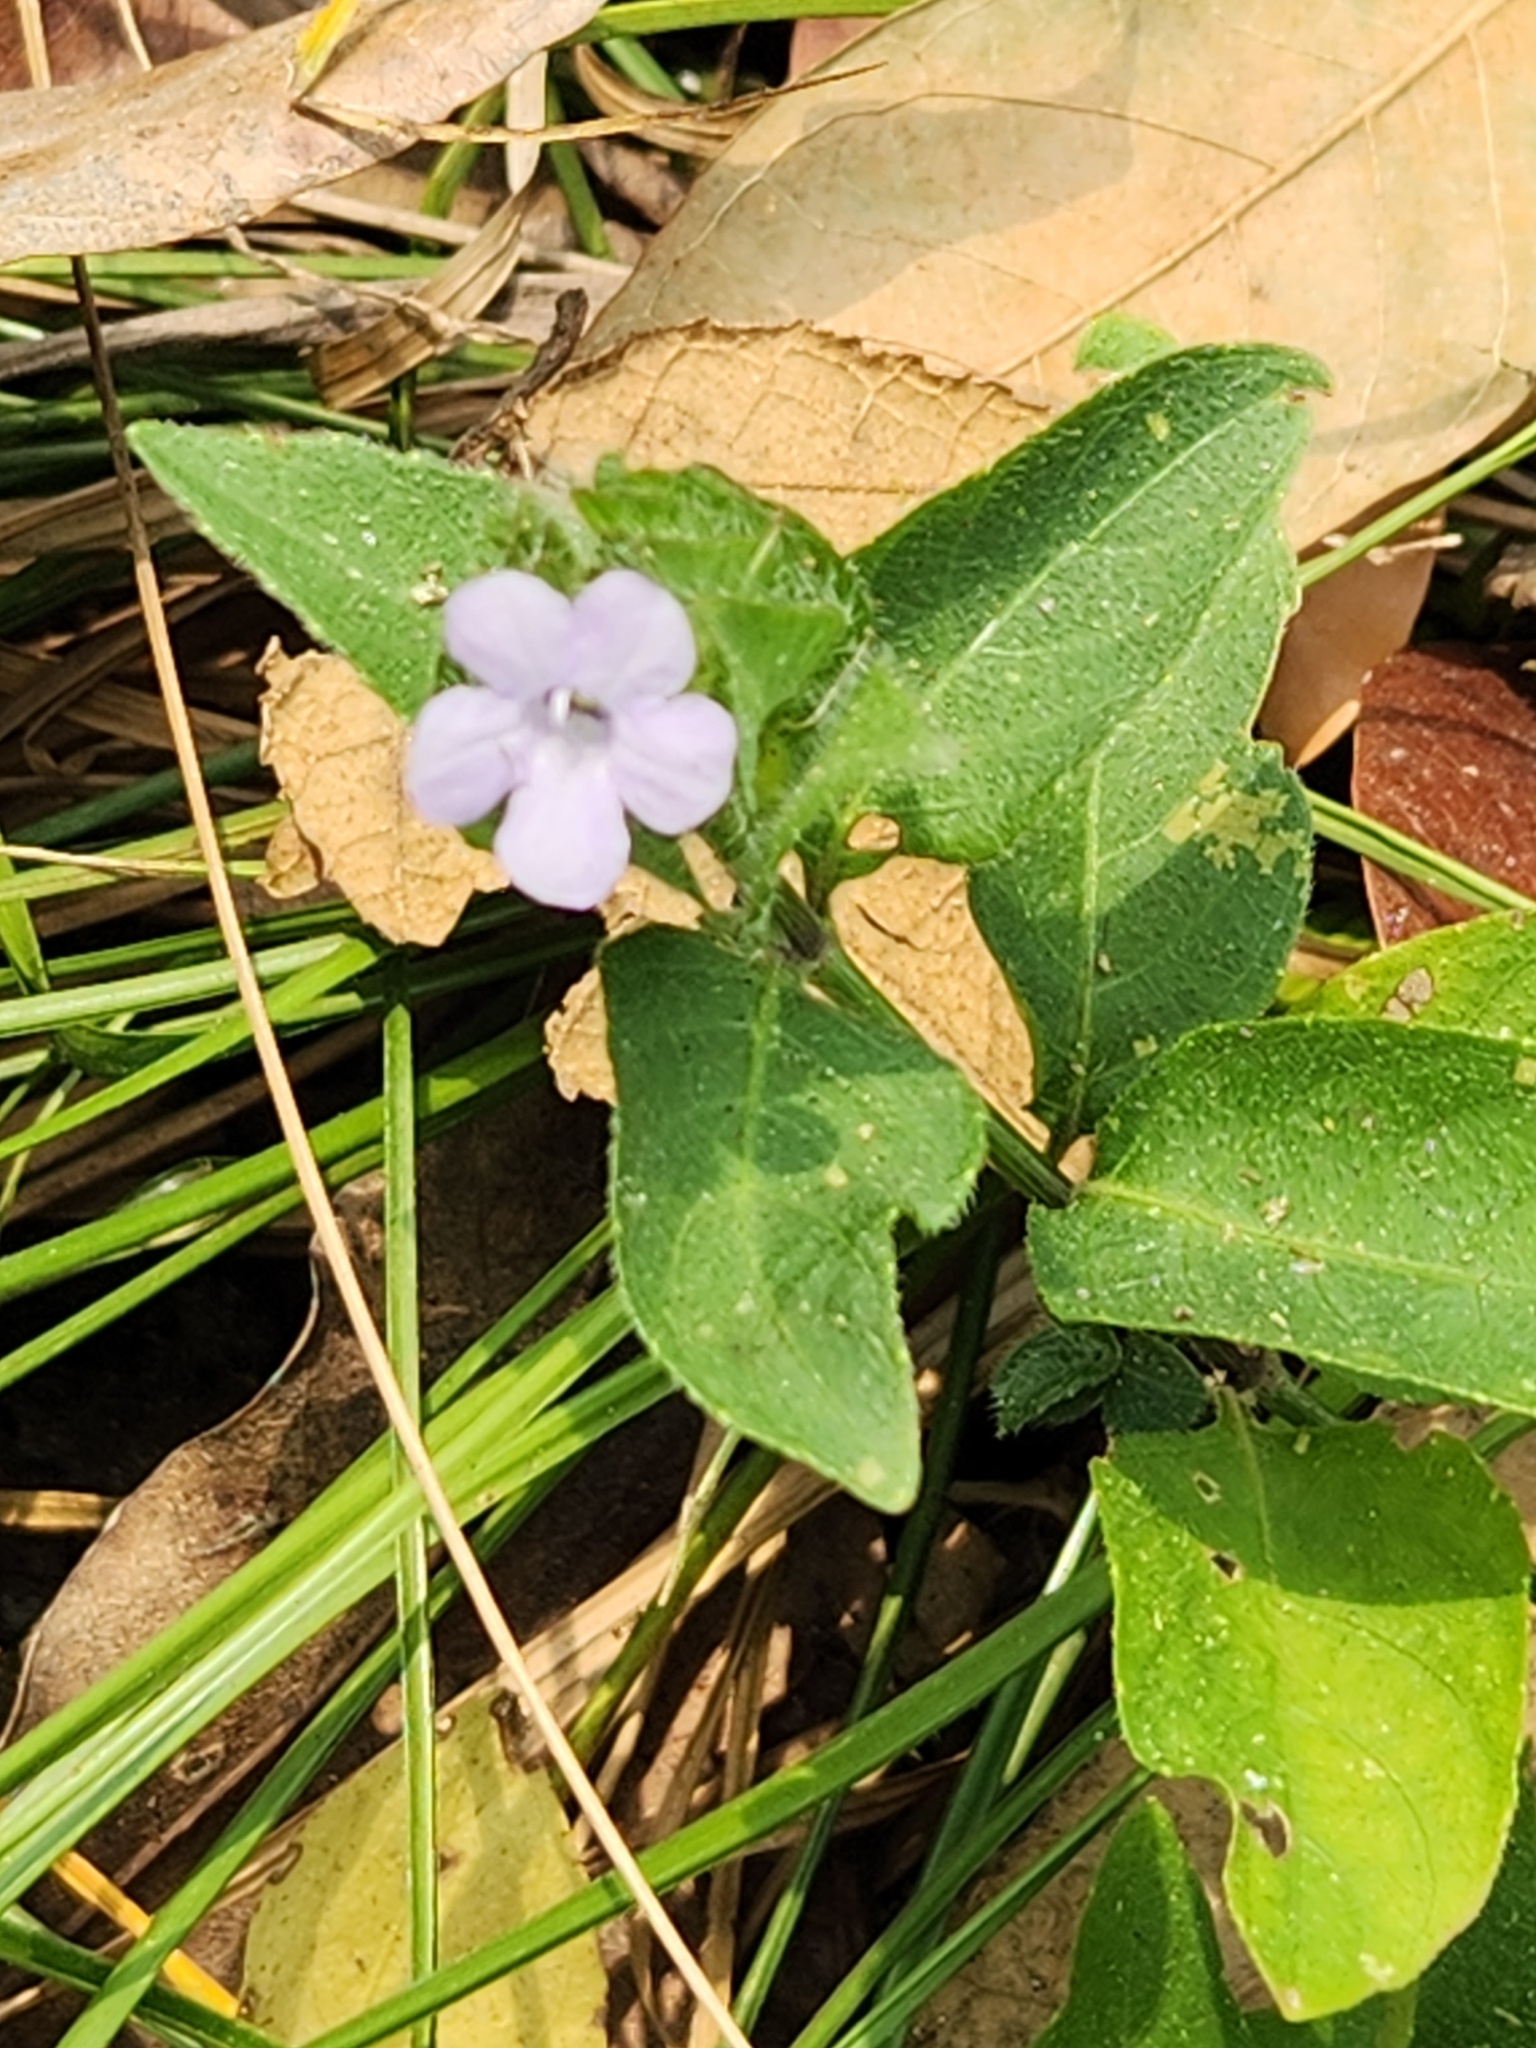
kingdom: Plantae
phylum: Tracheophyta
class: Magnoliopsida
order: Lamiales
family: Acanthaceae
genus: Ruellia
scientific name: Ruellia blechum
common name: Browne's blechum
